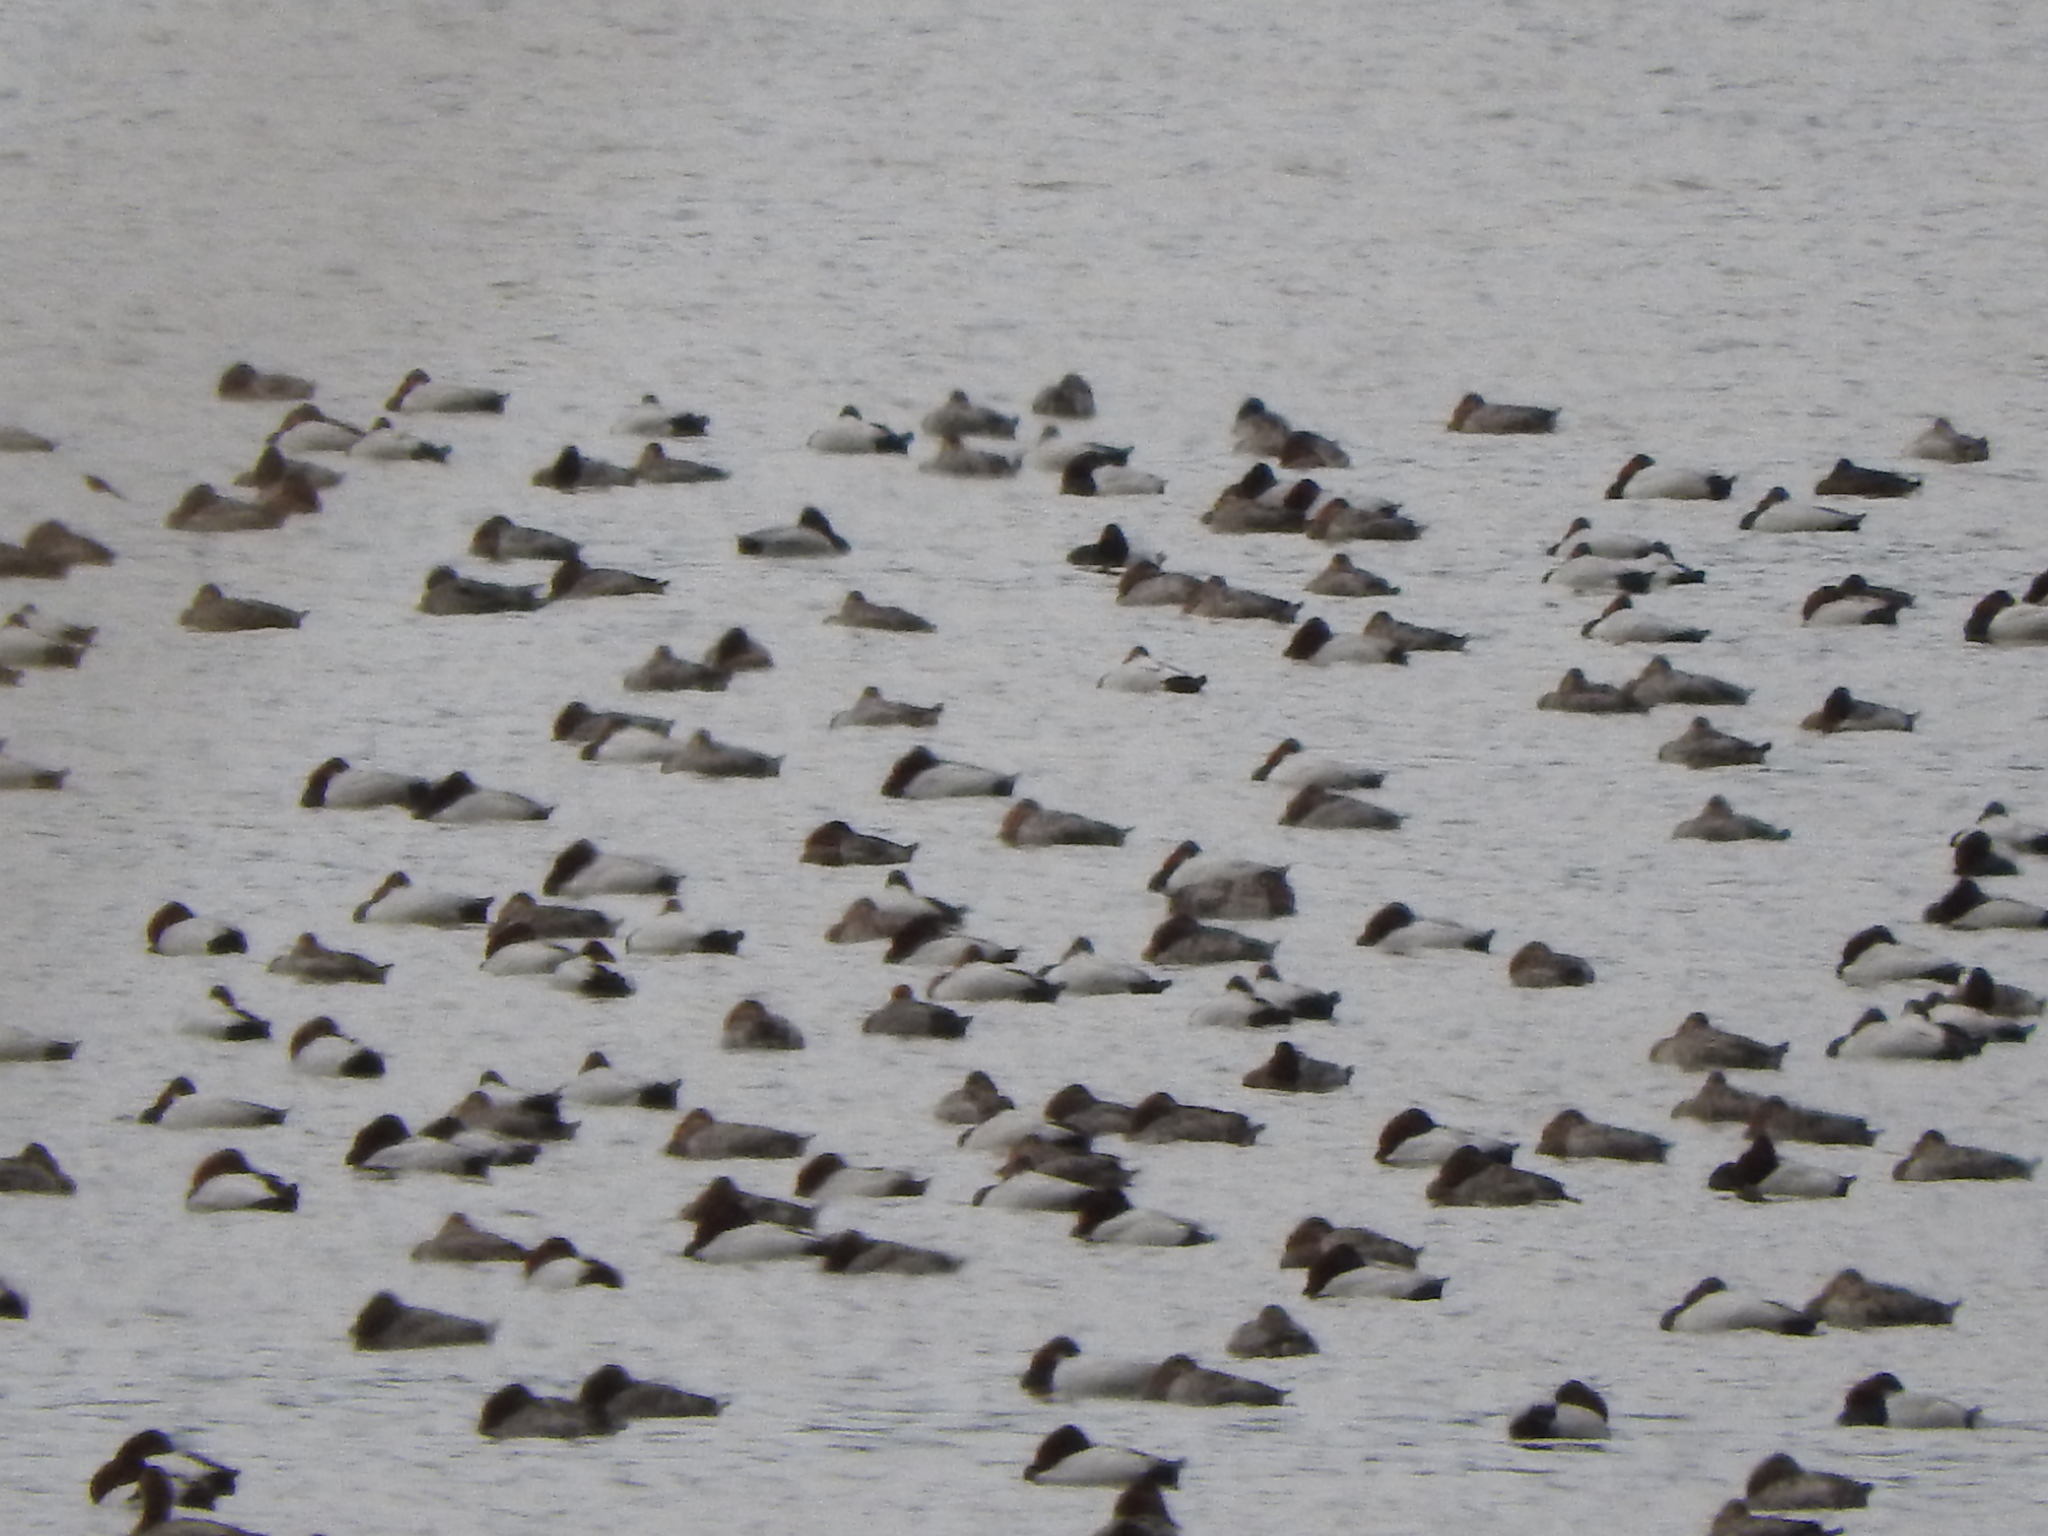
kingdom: Animalia
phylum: Chordata
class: Aves
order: Anseriformes
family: Anatidae
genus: Aythya
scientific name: Aythya valisineria
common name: Canvasback
